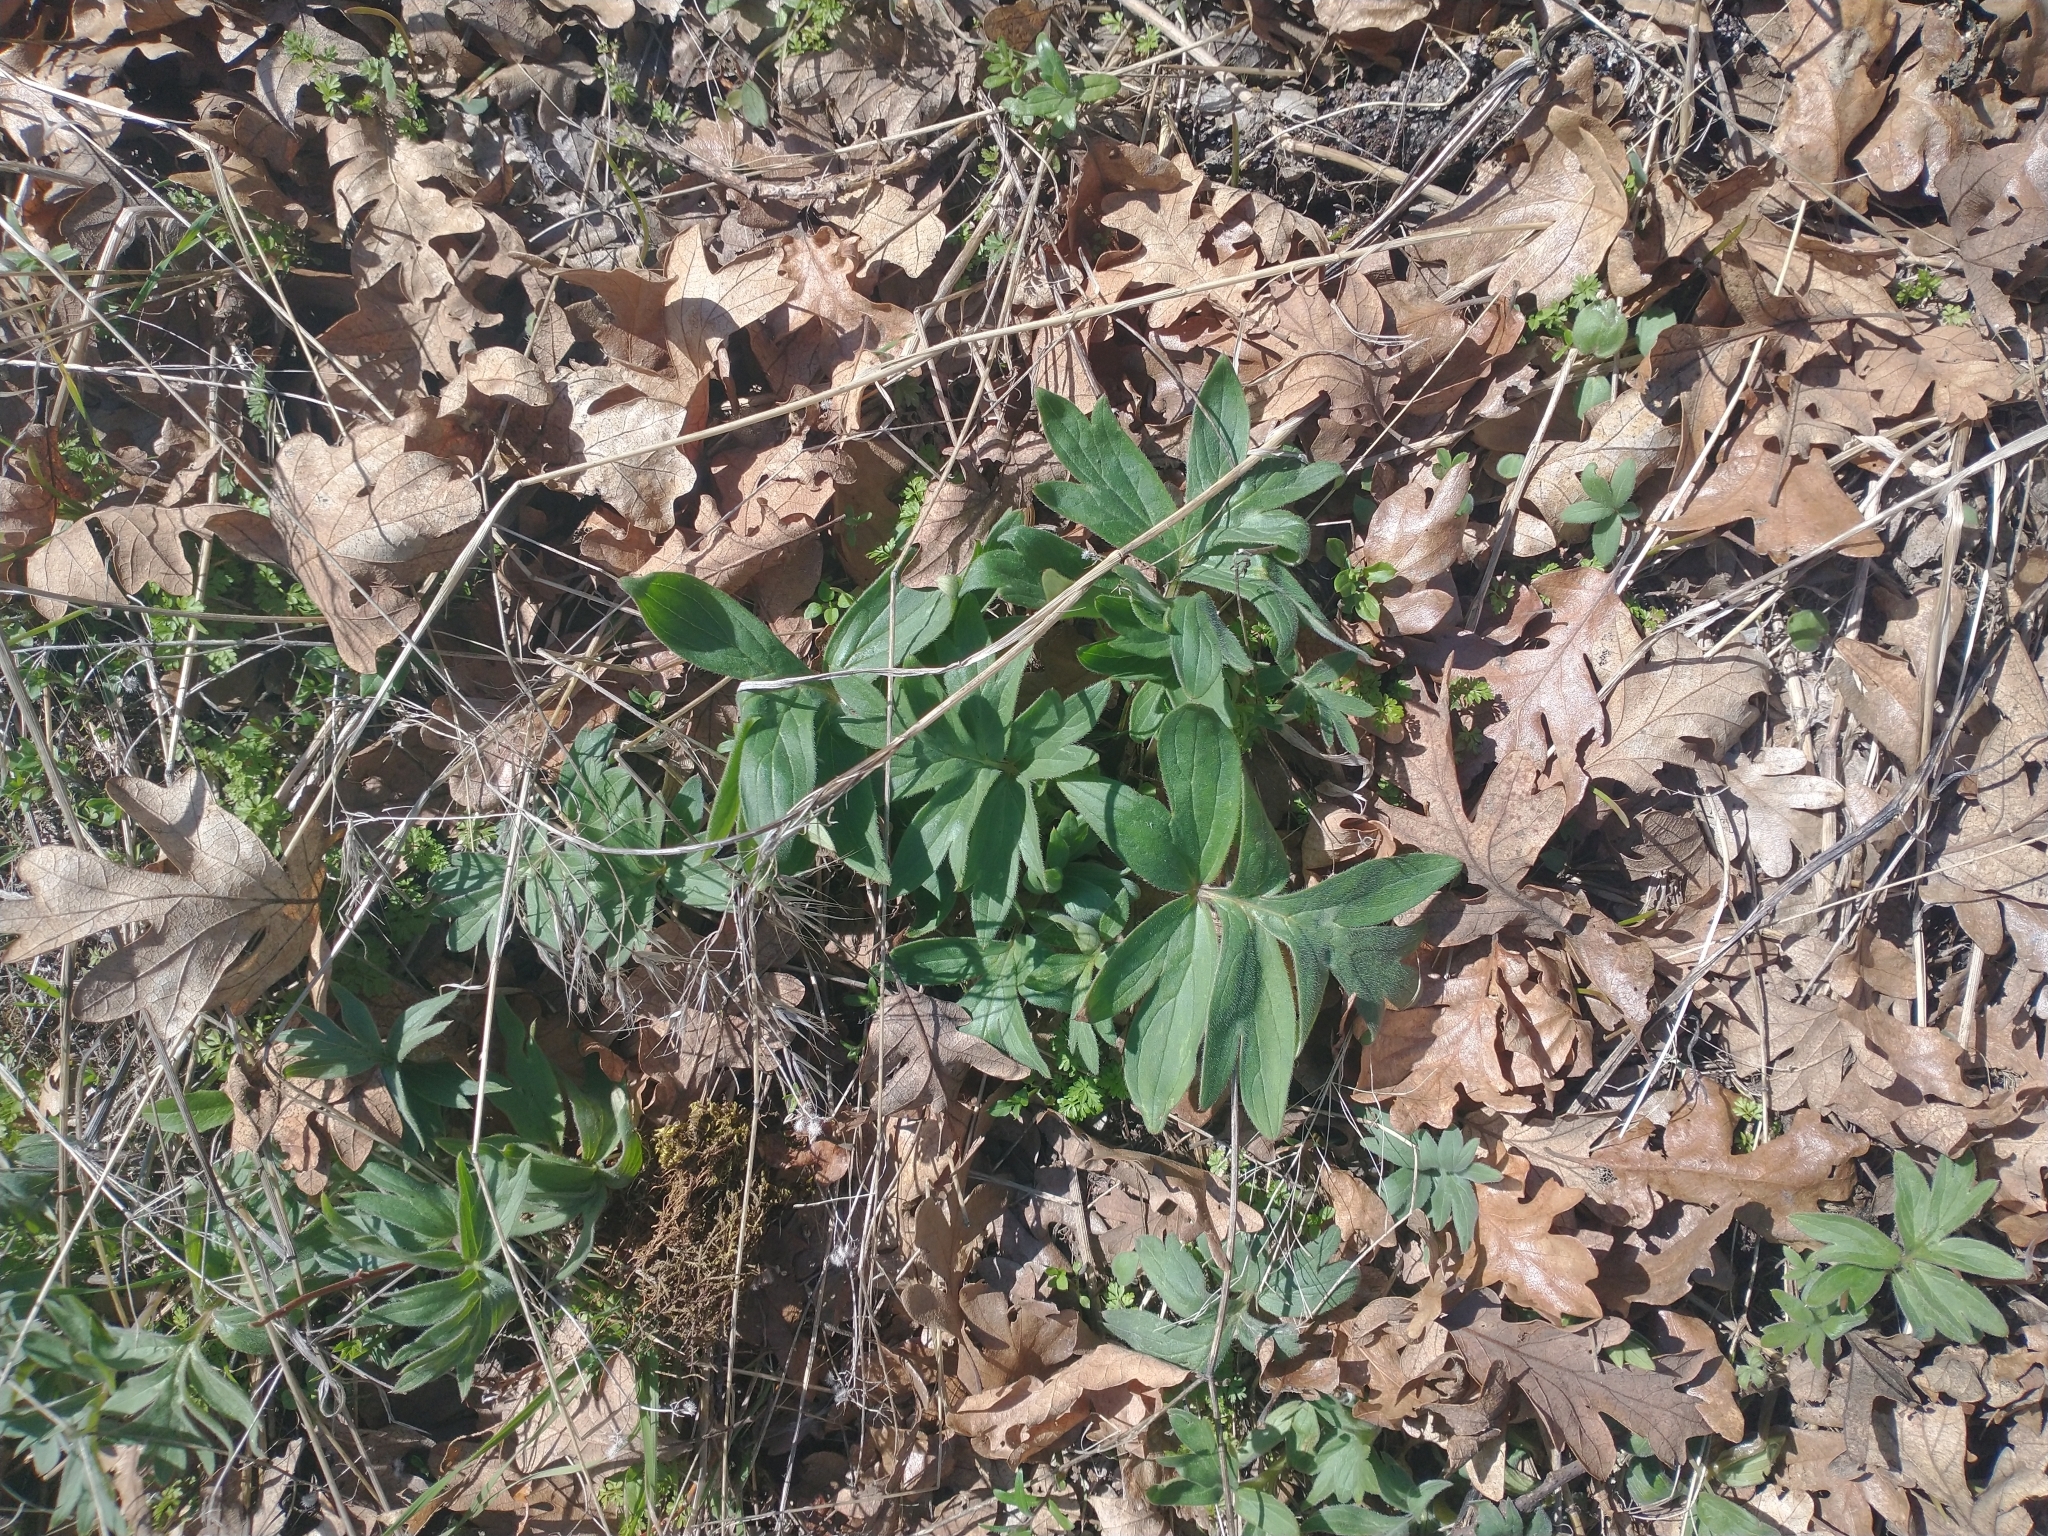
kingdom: Plantae
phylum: Tracheophyta
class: Magnoliopsida
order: Boraginales
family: Hydrophyllaceae
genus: Hydrophyllum
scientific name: Hydrophyllum capitatum
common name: Woollen-breeches
